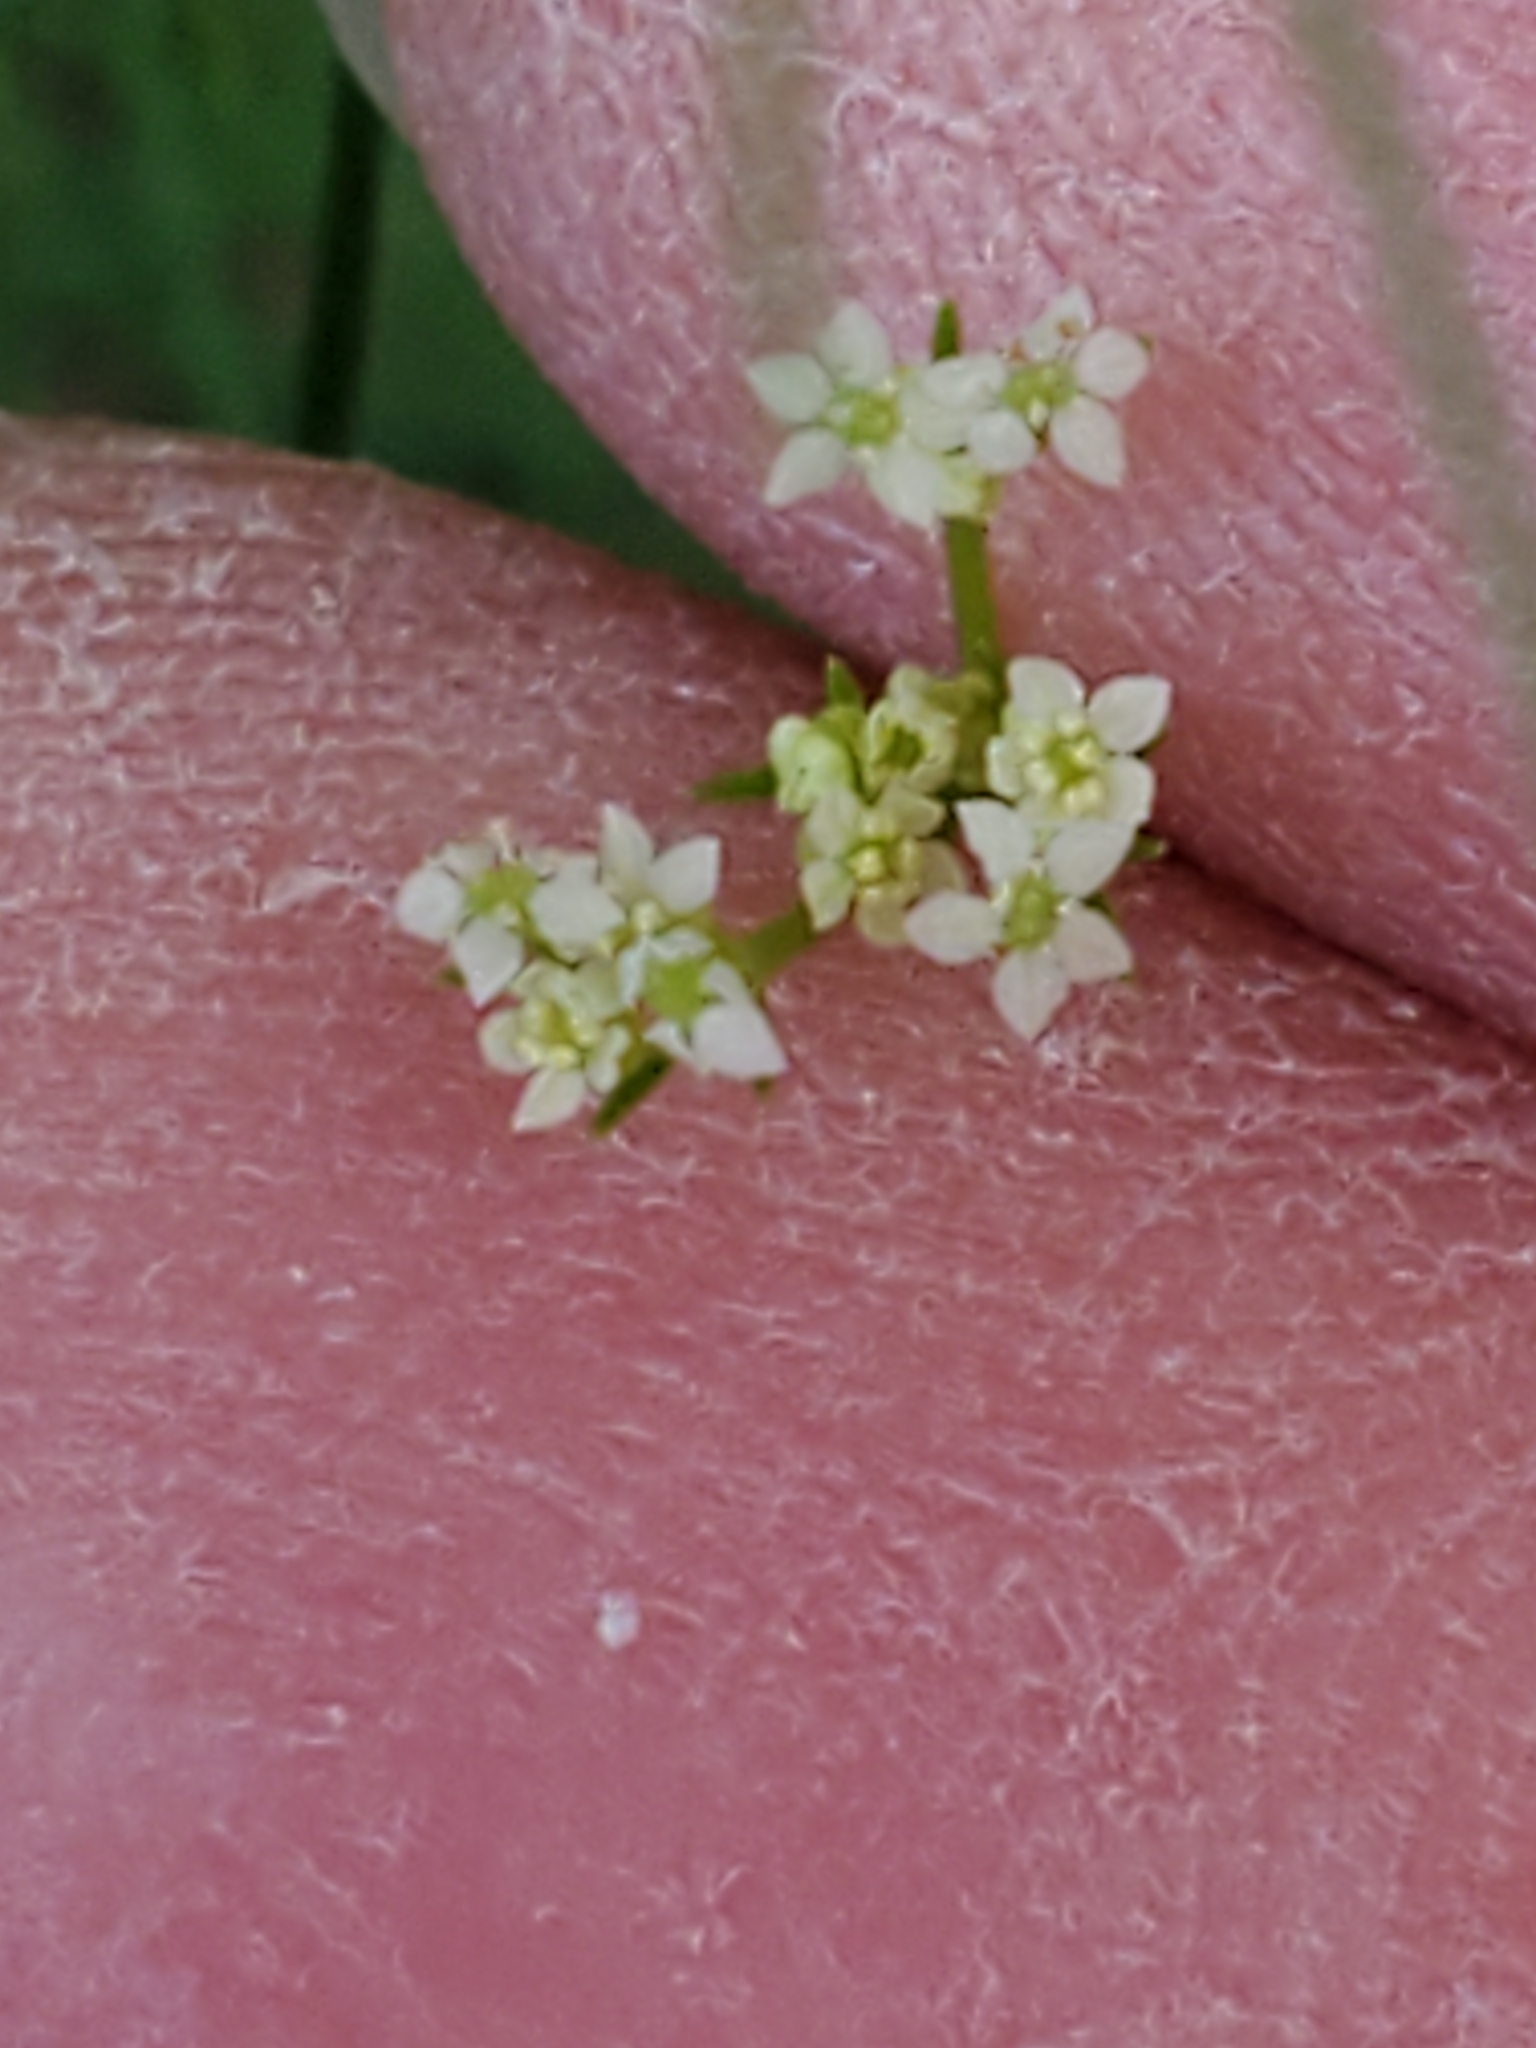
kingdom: Plantae
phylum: Tracheophyta
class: Magnoliopsida
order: Apiales
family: Apiaceae
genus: Atrema
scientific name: Atrema americanum
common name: Prairie-bishop
